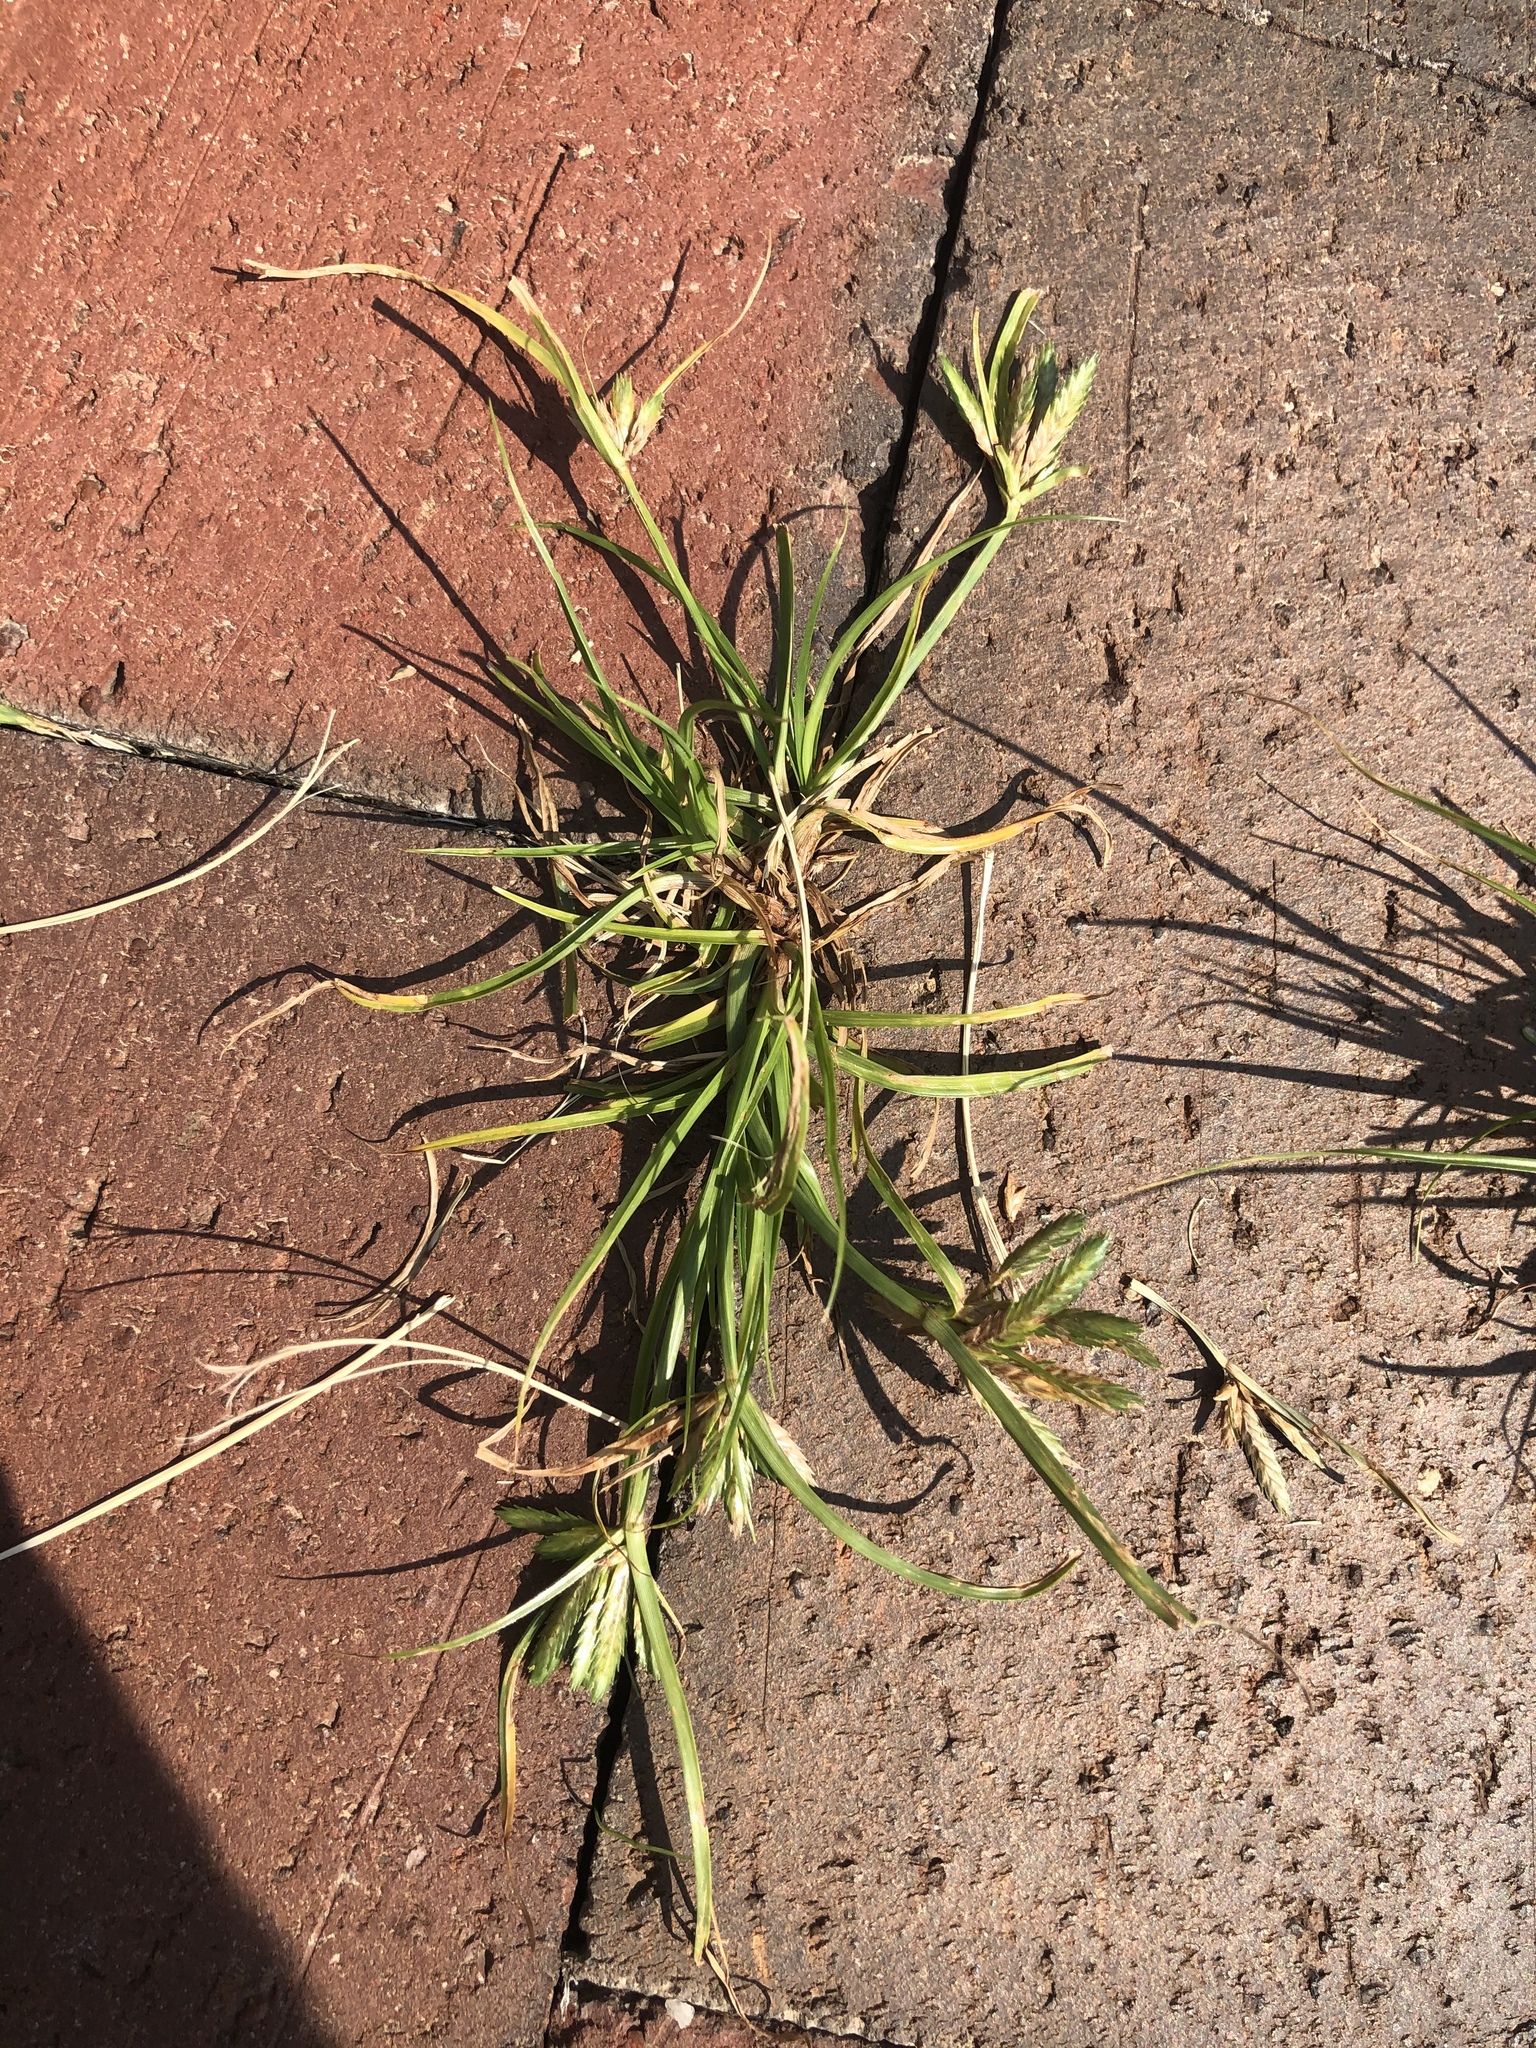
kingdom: Plantae
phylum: Tracheophyta
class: Liliopsida
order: Poales
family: Cyperaceae
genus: Cyperus
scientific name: Cyperus compressus
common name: Poorland flatsedge
